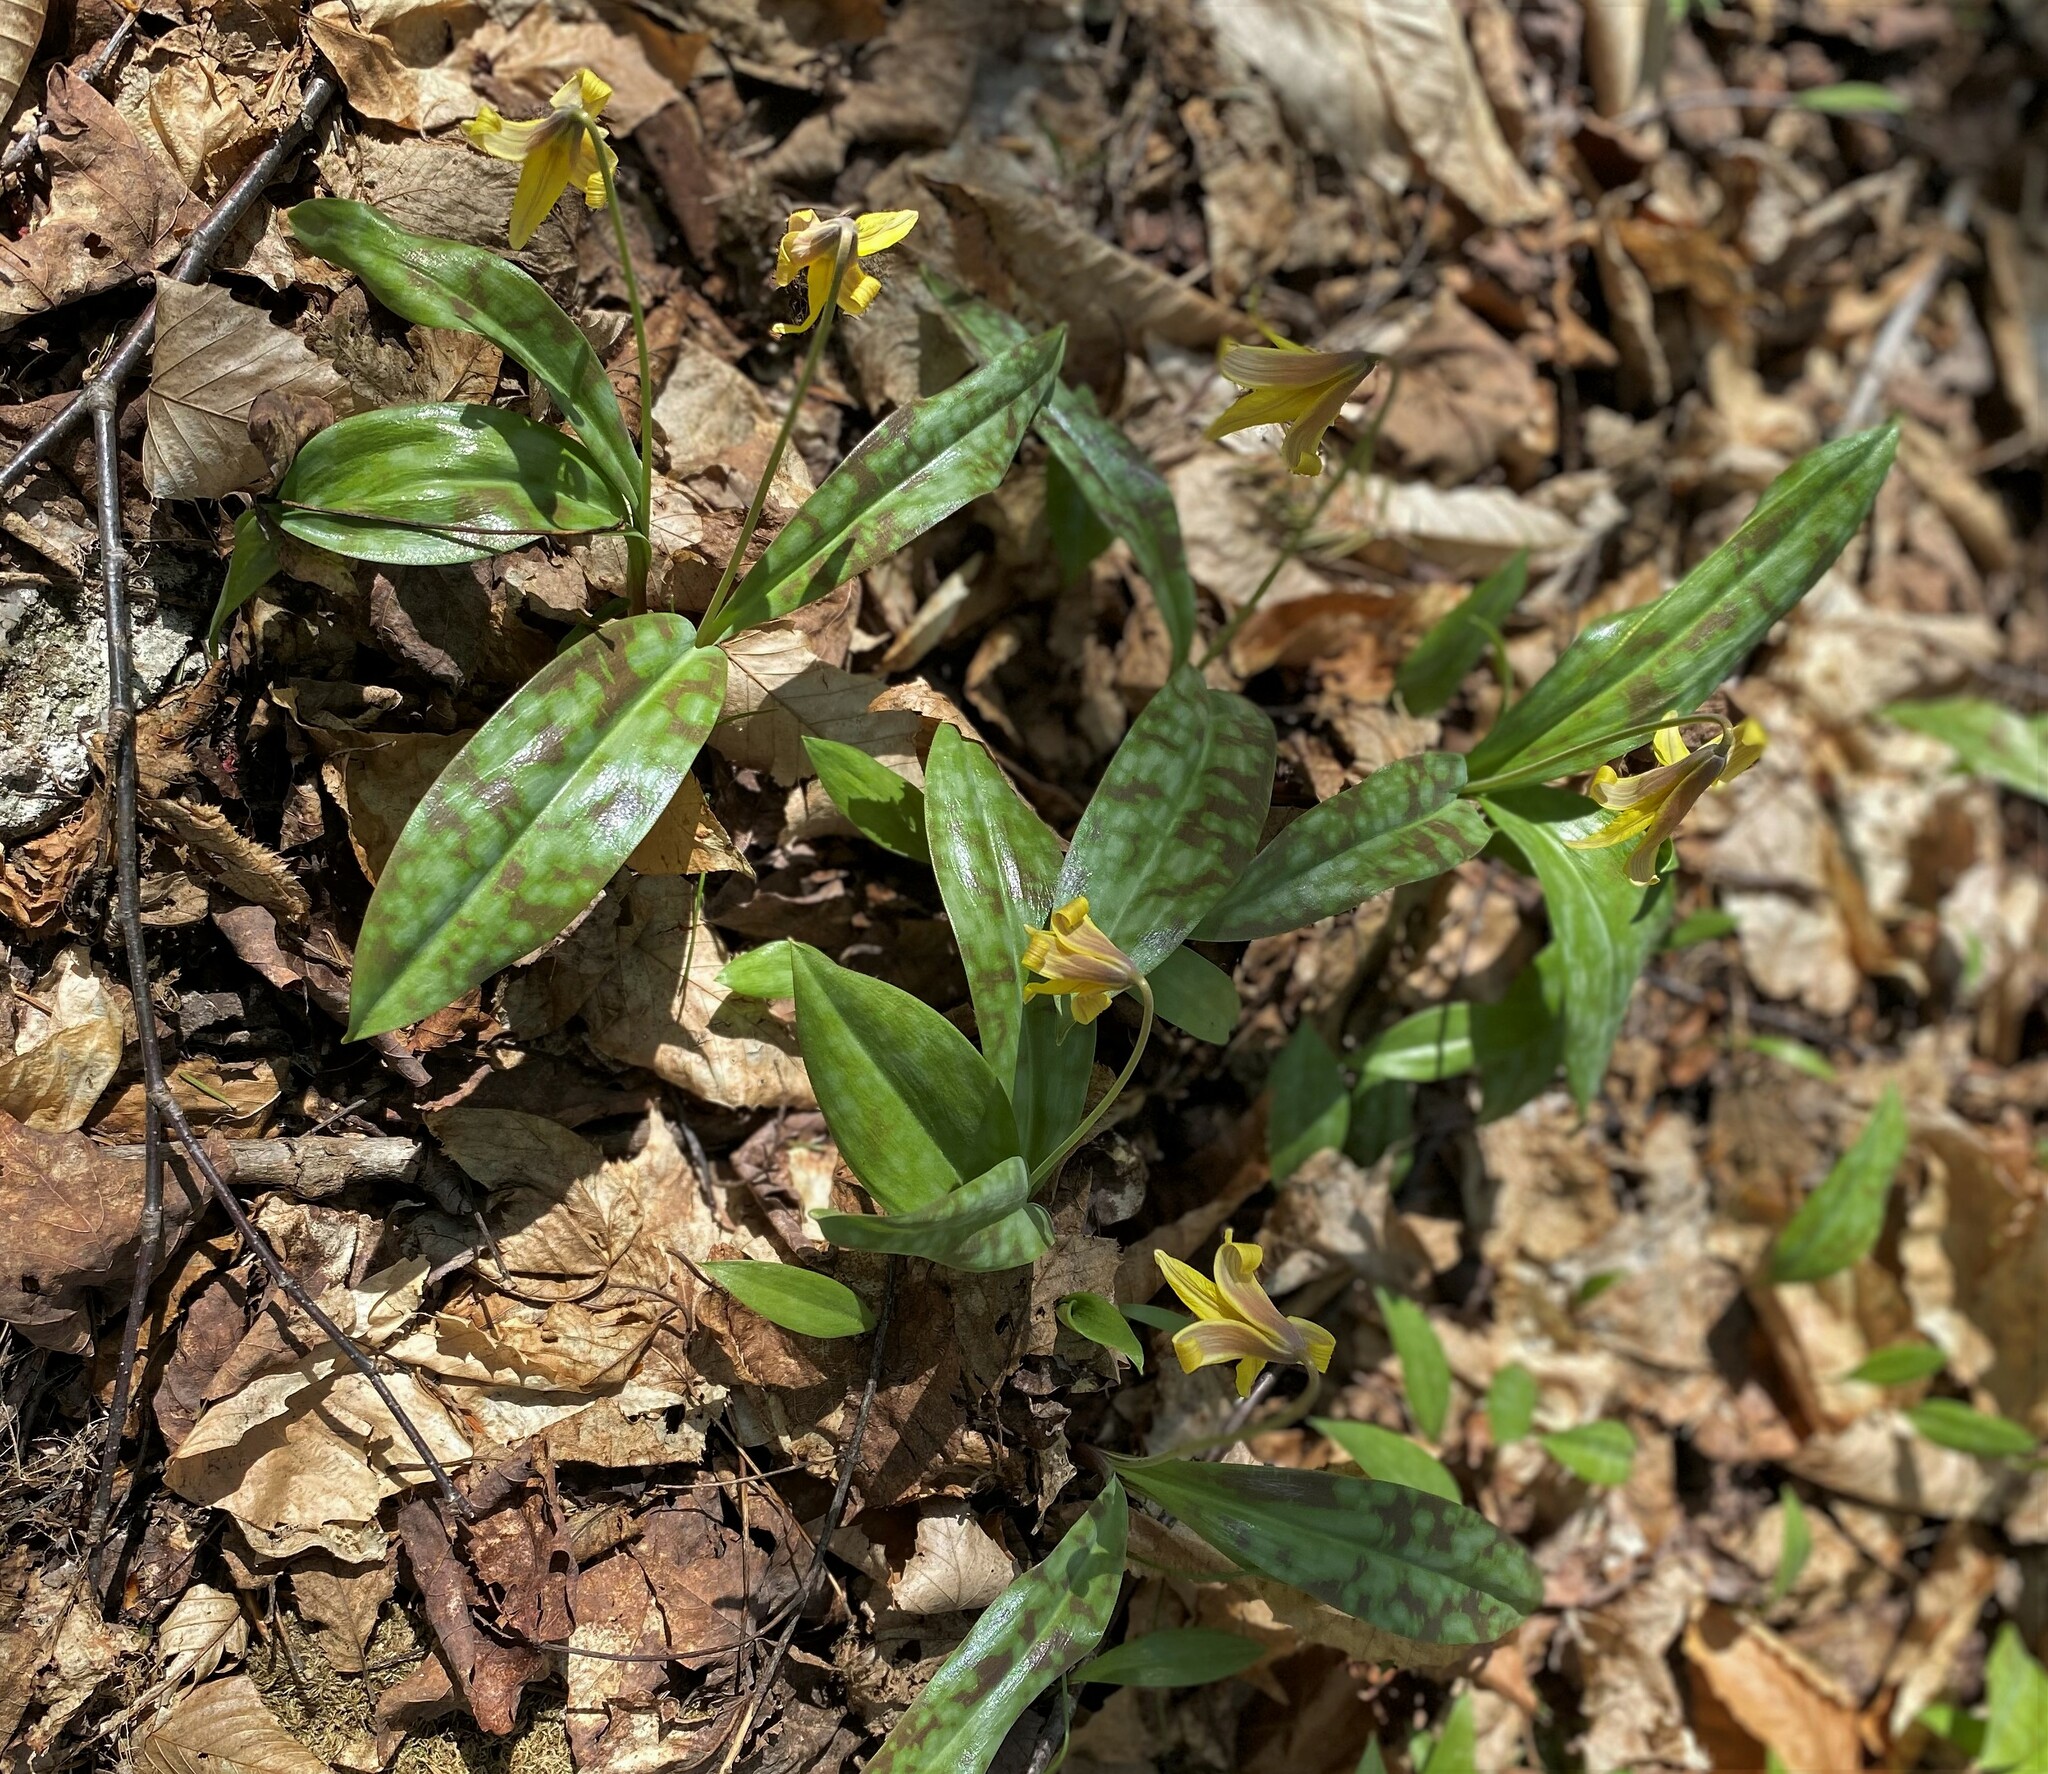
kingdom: Plantae
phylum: Tracheophyta
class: Liliopsida
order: Liliales
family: Liliaceae
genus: Erythronium
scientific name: Erythronium americanum
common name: Yellow adder's-tongue
